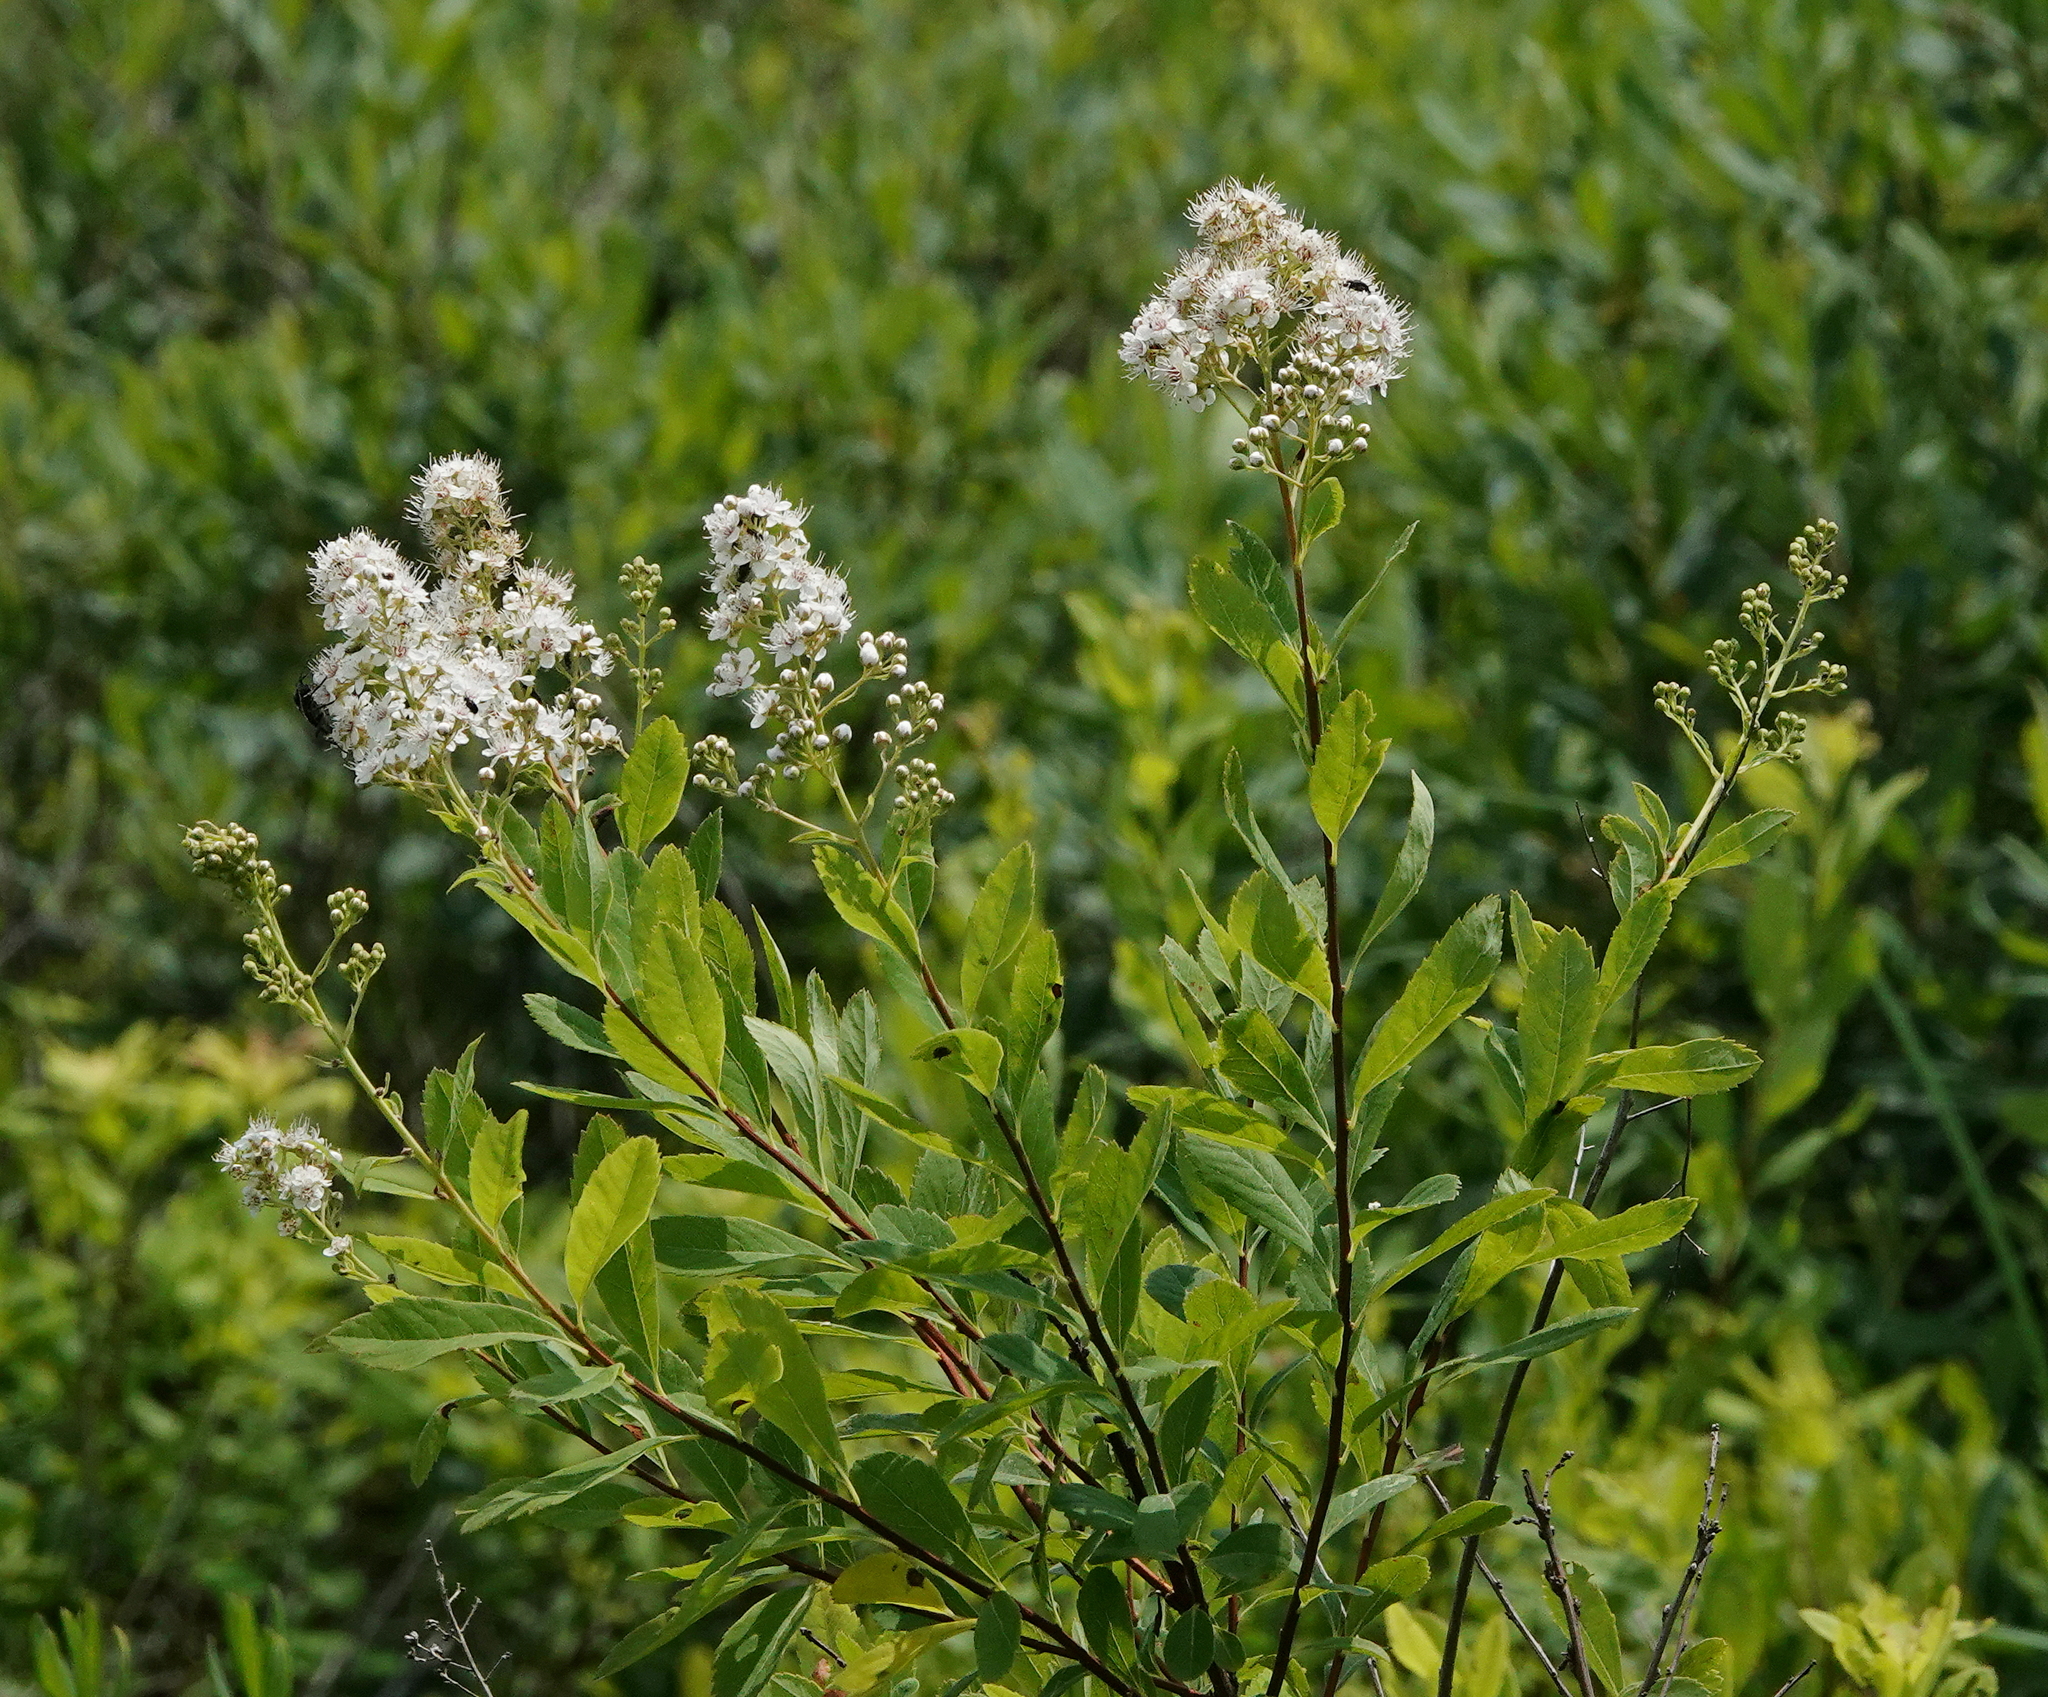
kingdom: Plantae
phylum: Tracheophyta
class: Magnoliopsida
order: Rosales
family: Rosaceae
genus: Spiraea
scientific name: Spiraea alba
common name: Pale bridewort
